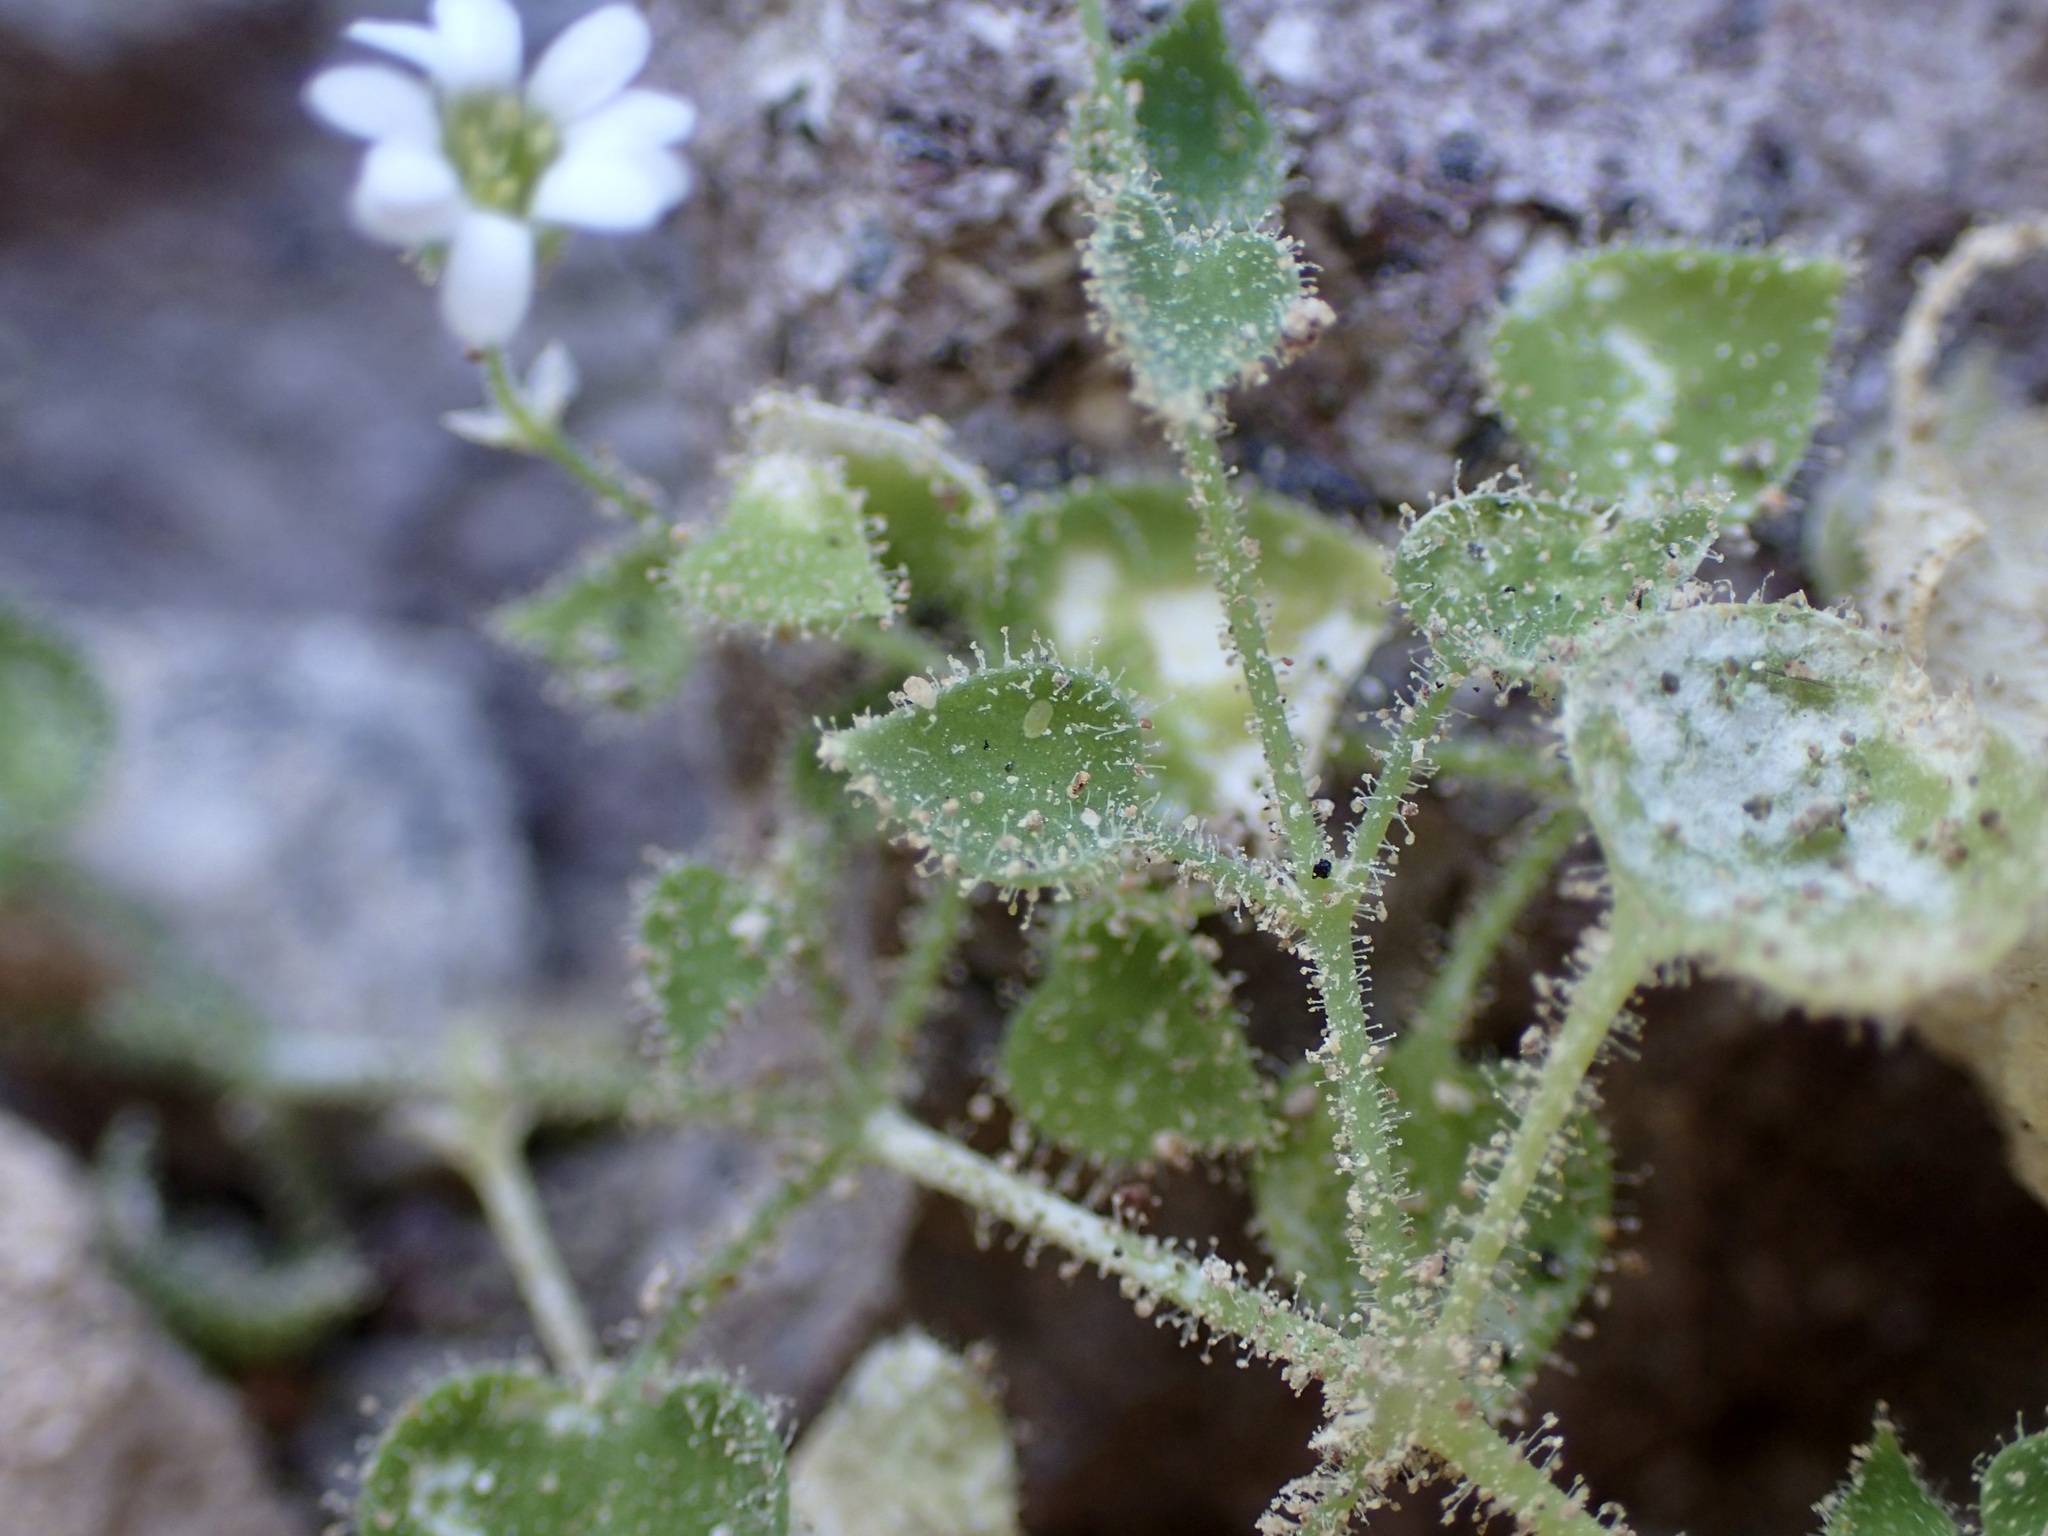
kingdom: Plantae
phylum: Tracheophyta
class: Magnoliopsida
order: Caryophyllales
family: Caryophyllaceae
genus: Drymaria
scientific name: Drymaria debilis
